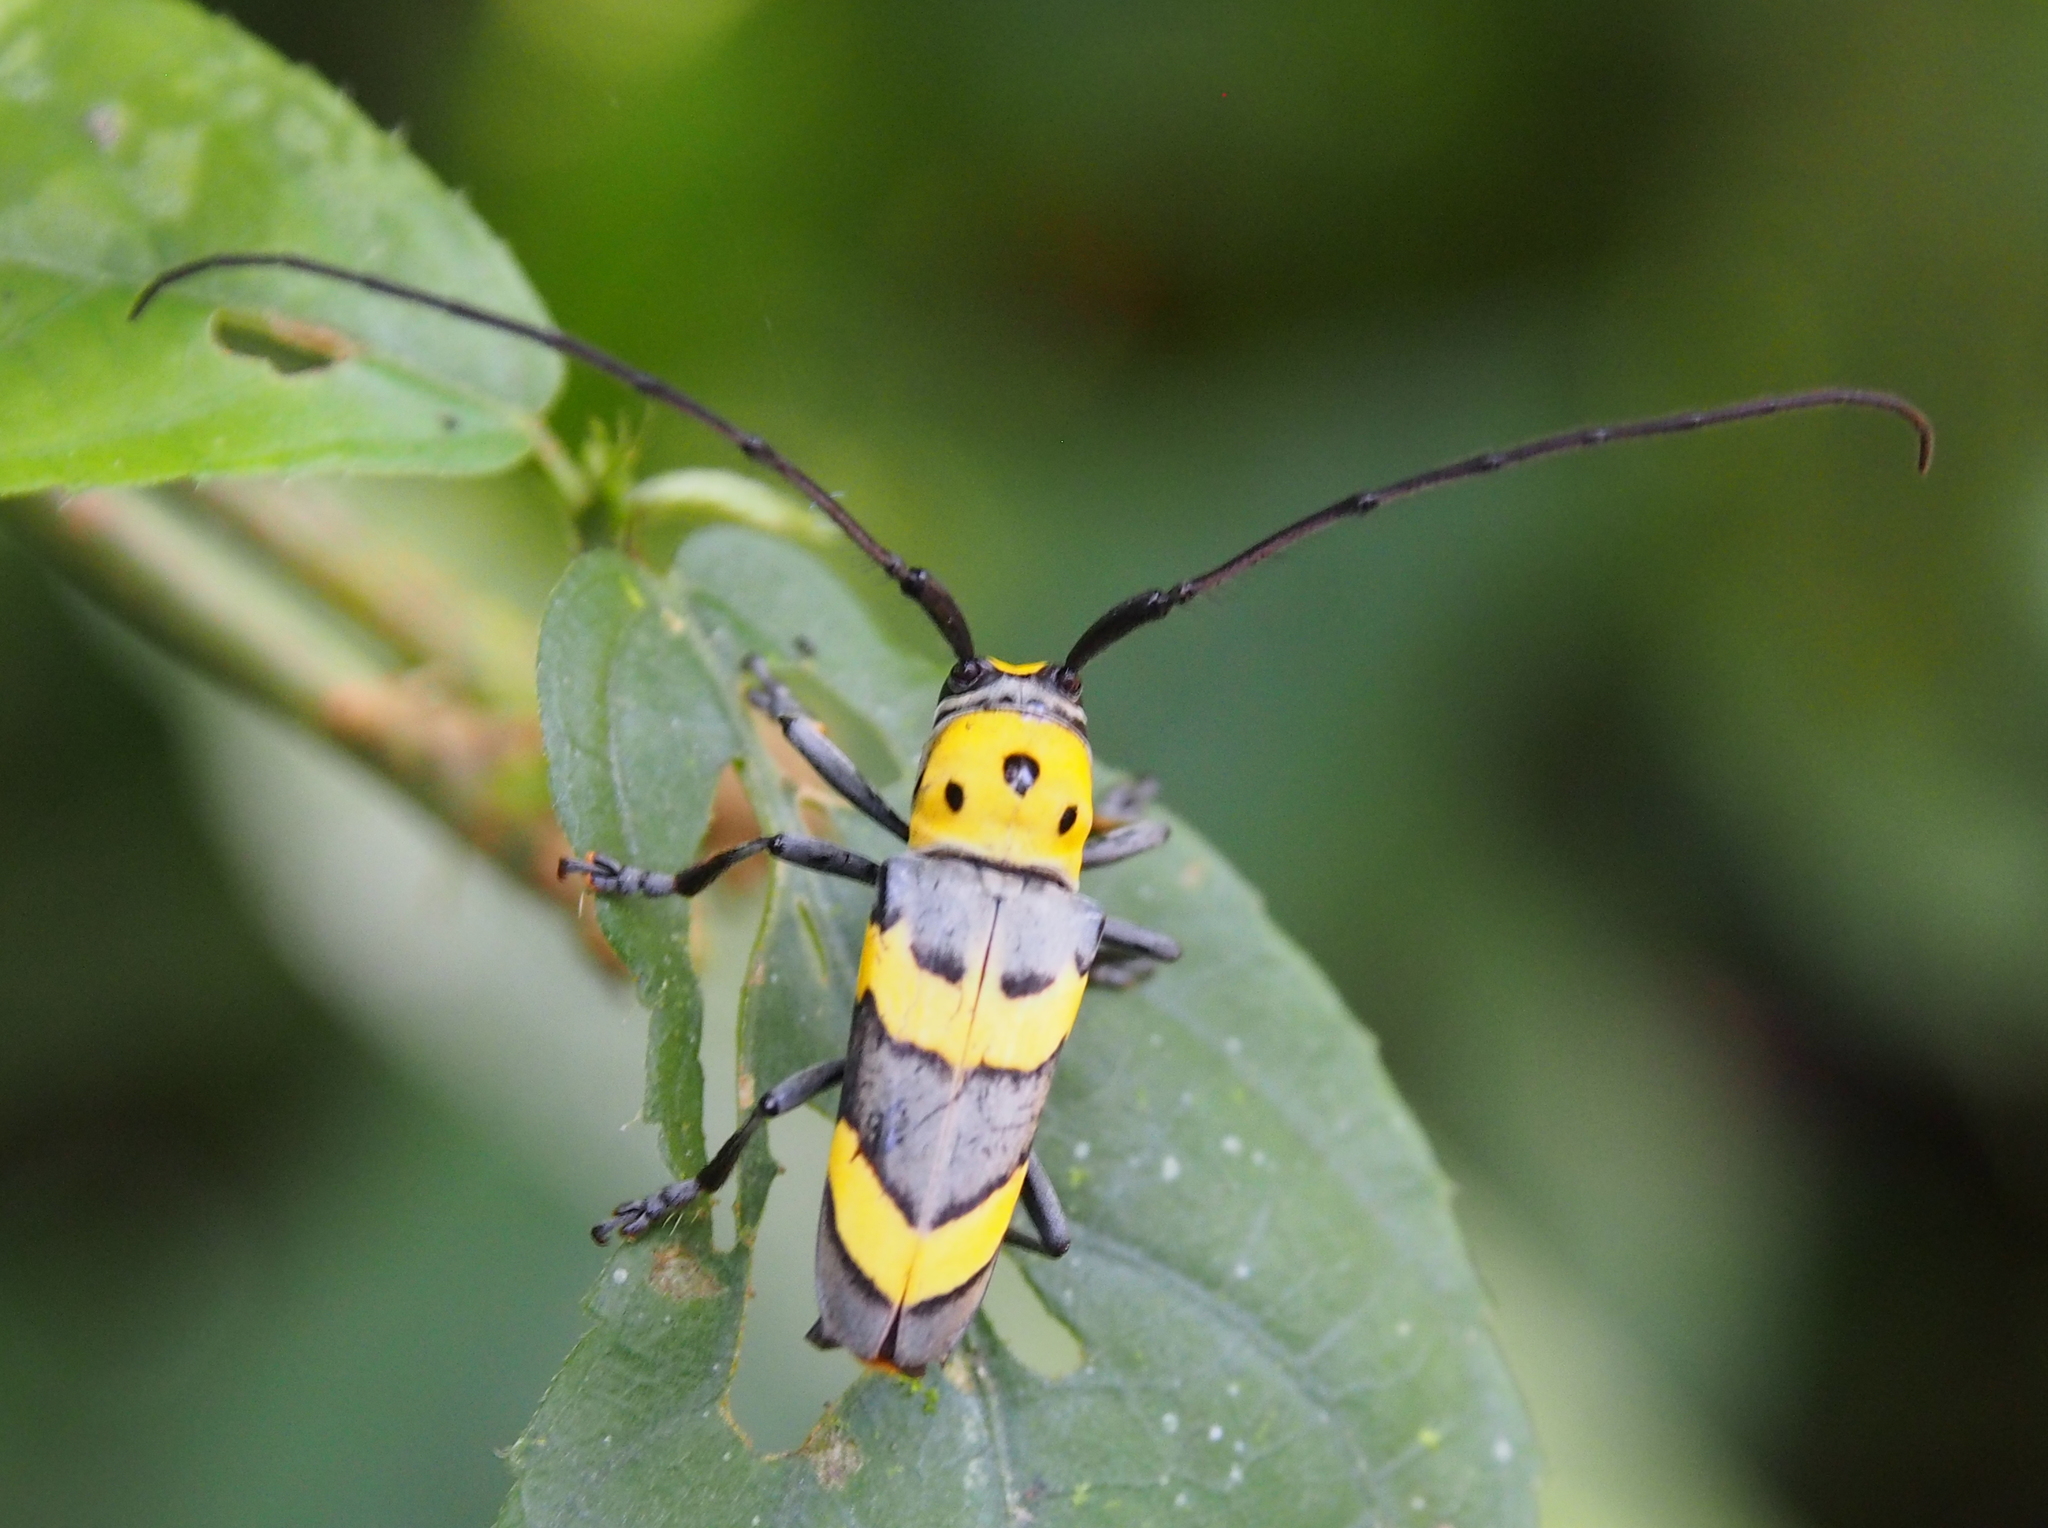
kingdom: Animalia
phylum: Arthropoda
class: Insecta
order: Coleoptera
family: Cerambycidae
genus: Oedudes
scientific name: Oedudes bifasciatus
